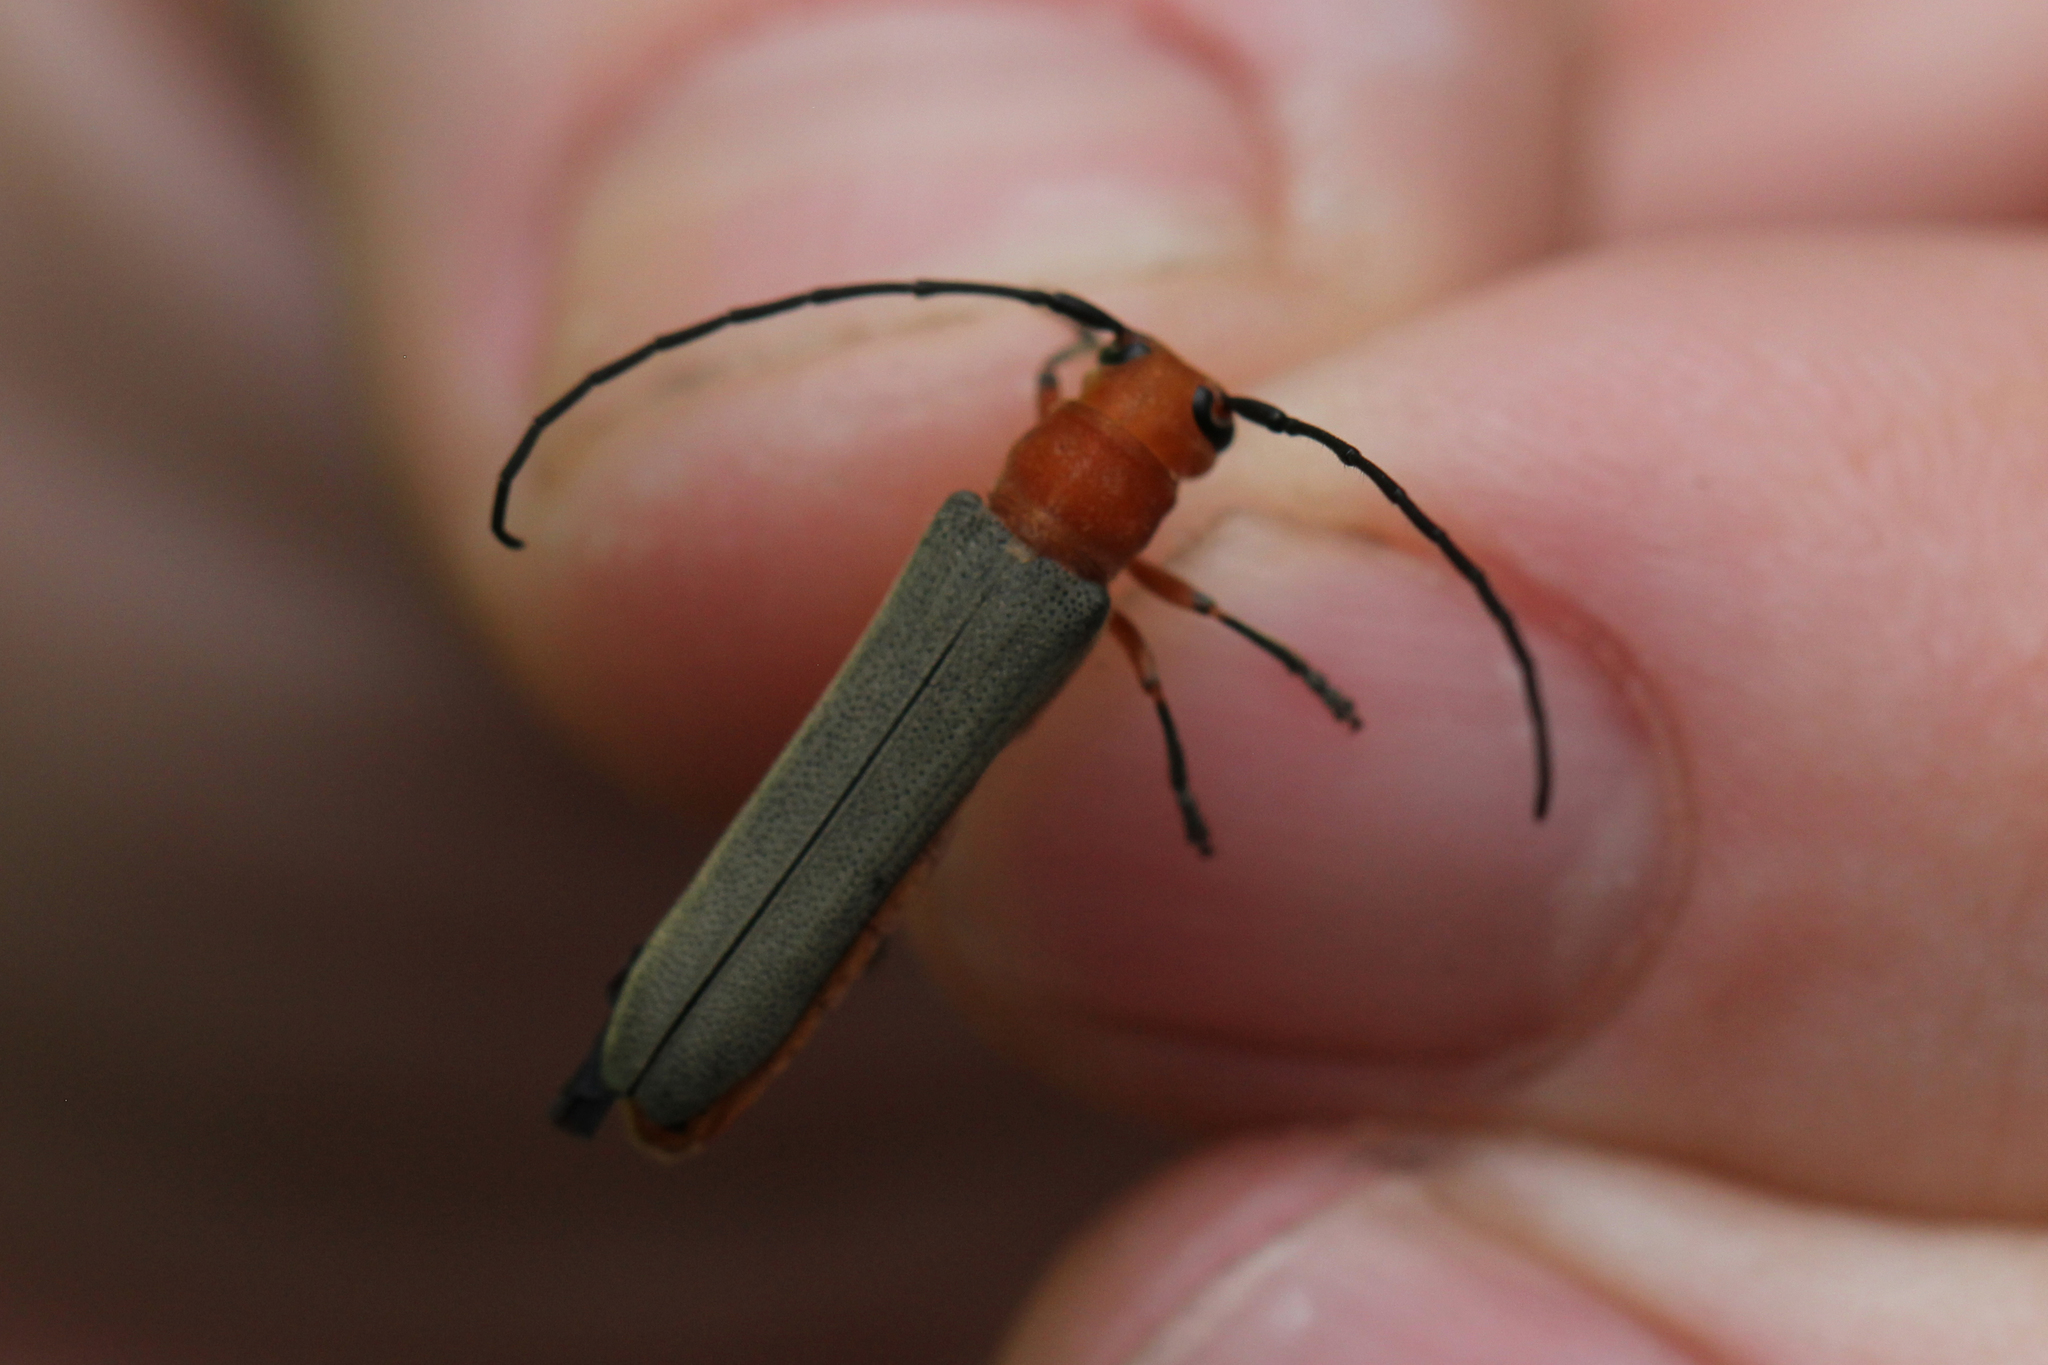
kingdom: Animalia
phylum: Arthropoda
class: Insecta
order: Coleoptera
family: Cerambycidae
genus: Oberea
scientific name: Oberea ruficollis
